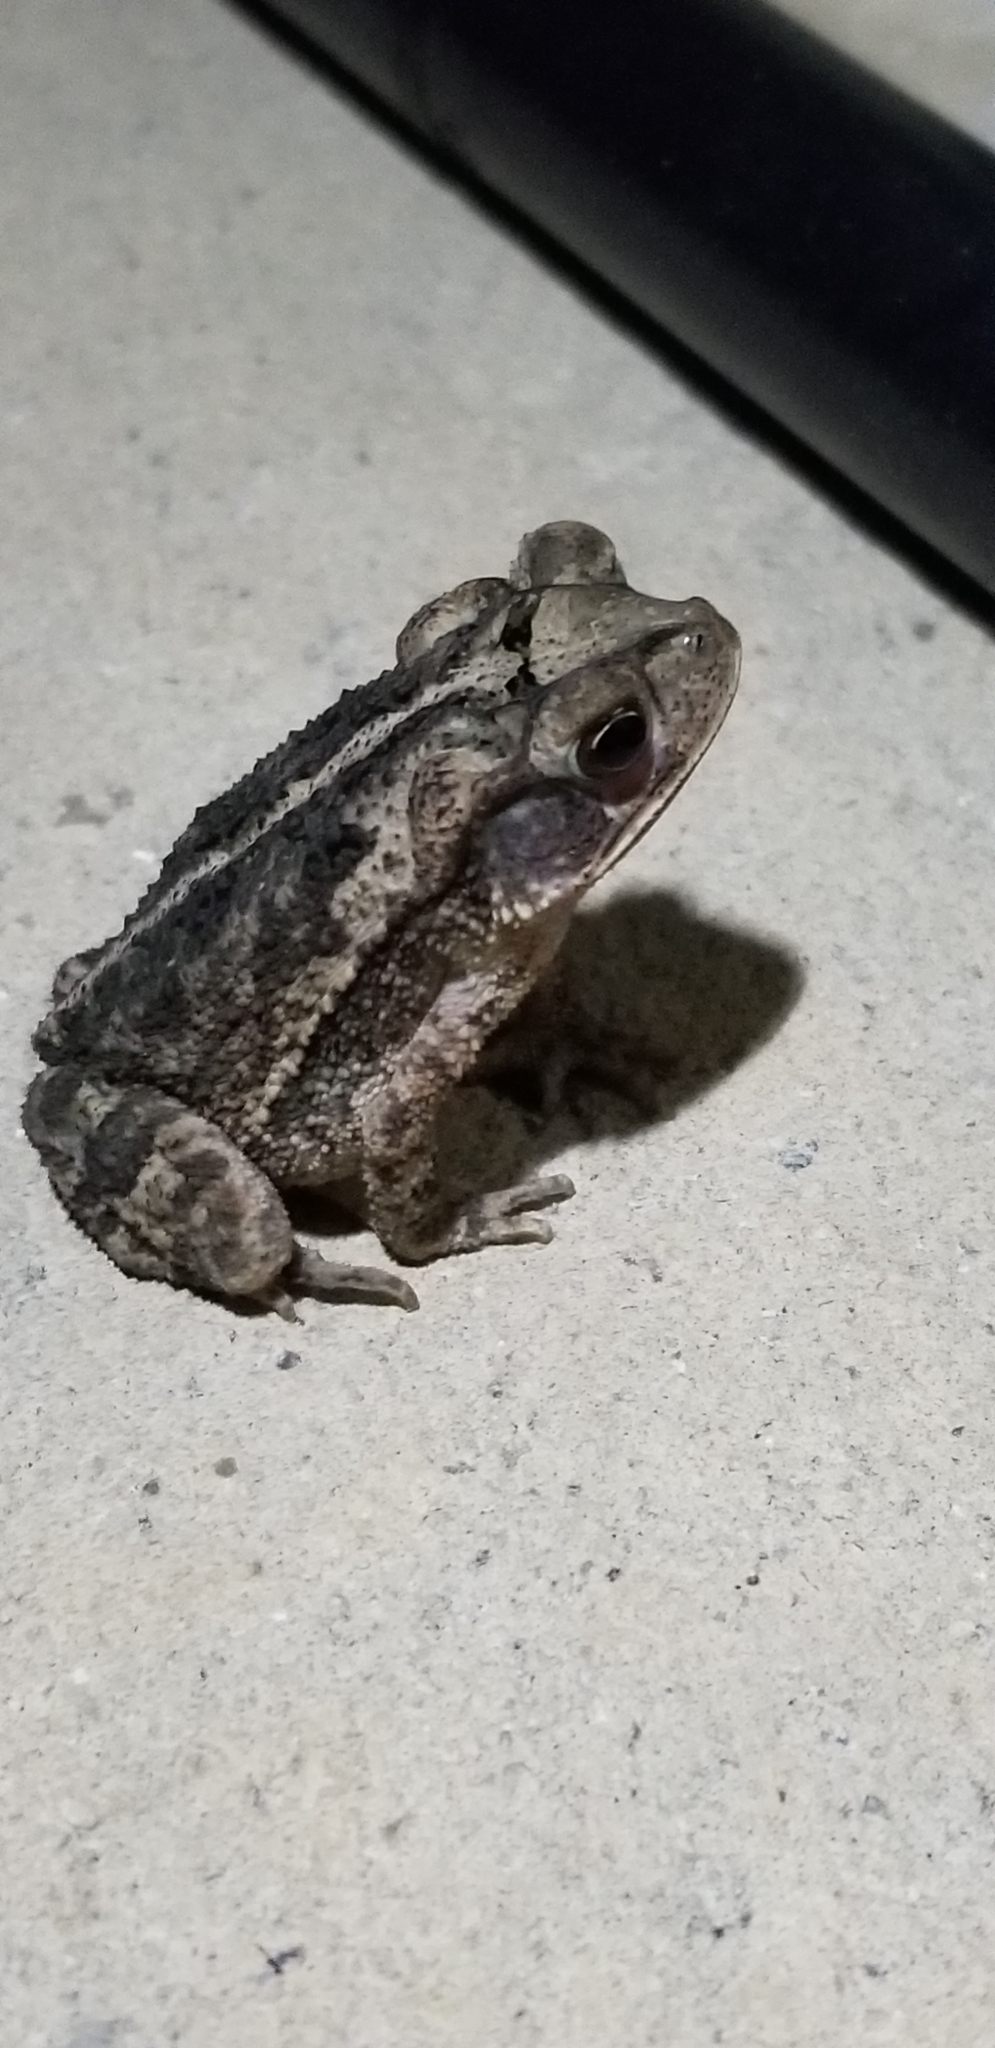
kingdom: Animalia
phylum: Chordata
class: Amphibia
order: Anura
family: Bufonidae
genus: Incilius
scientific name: Incilius nebulifer
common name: Gulf coast toad
